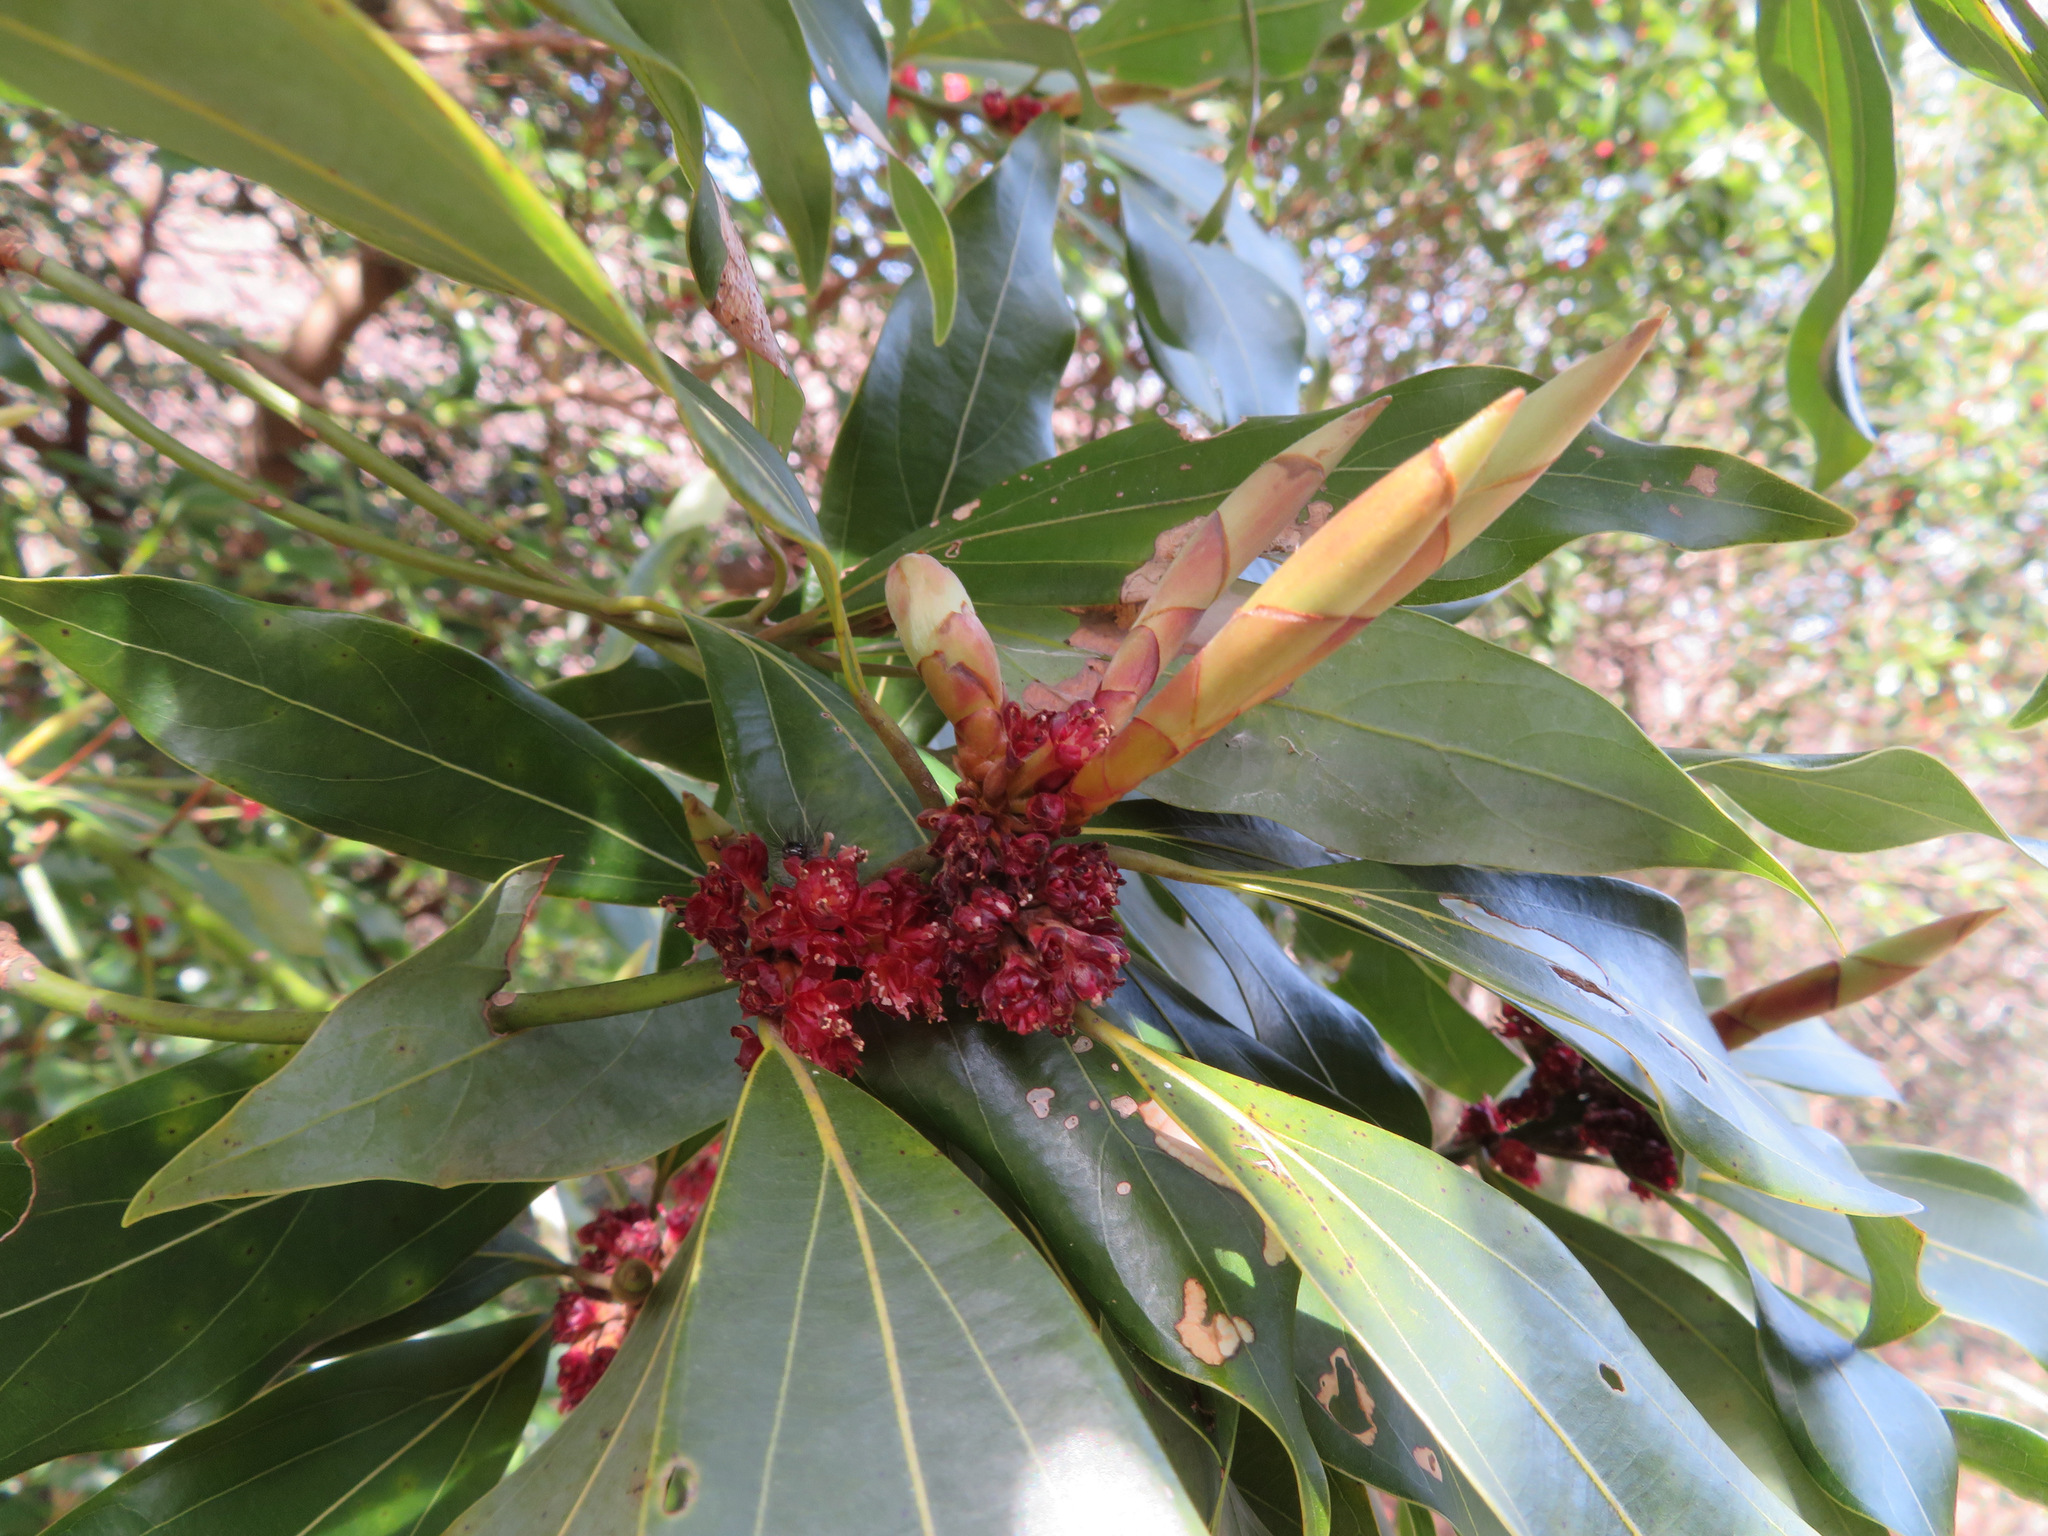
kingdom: Plantae
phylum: Tracheophyta
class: Magnoliopsida
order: Laurales
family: Lauraceae
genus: Neolitsea
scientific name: Neolitsea aciculata
